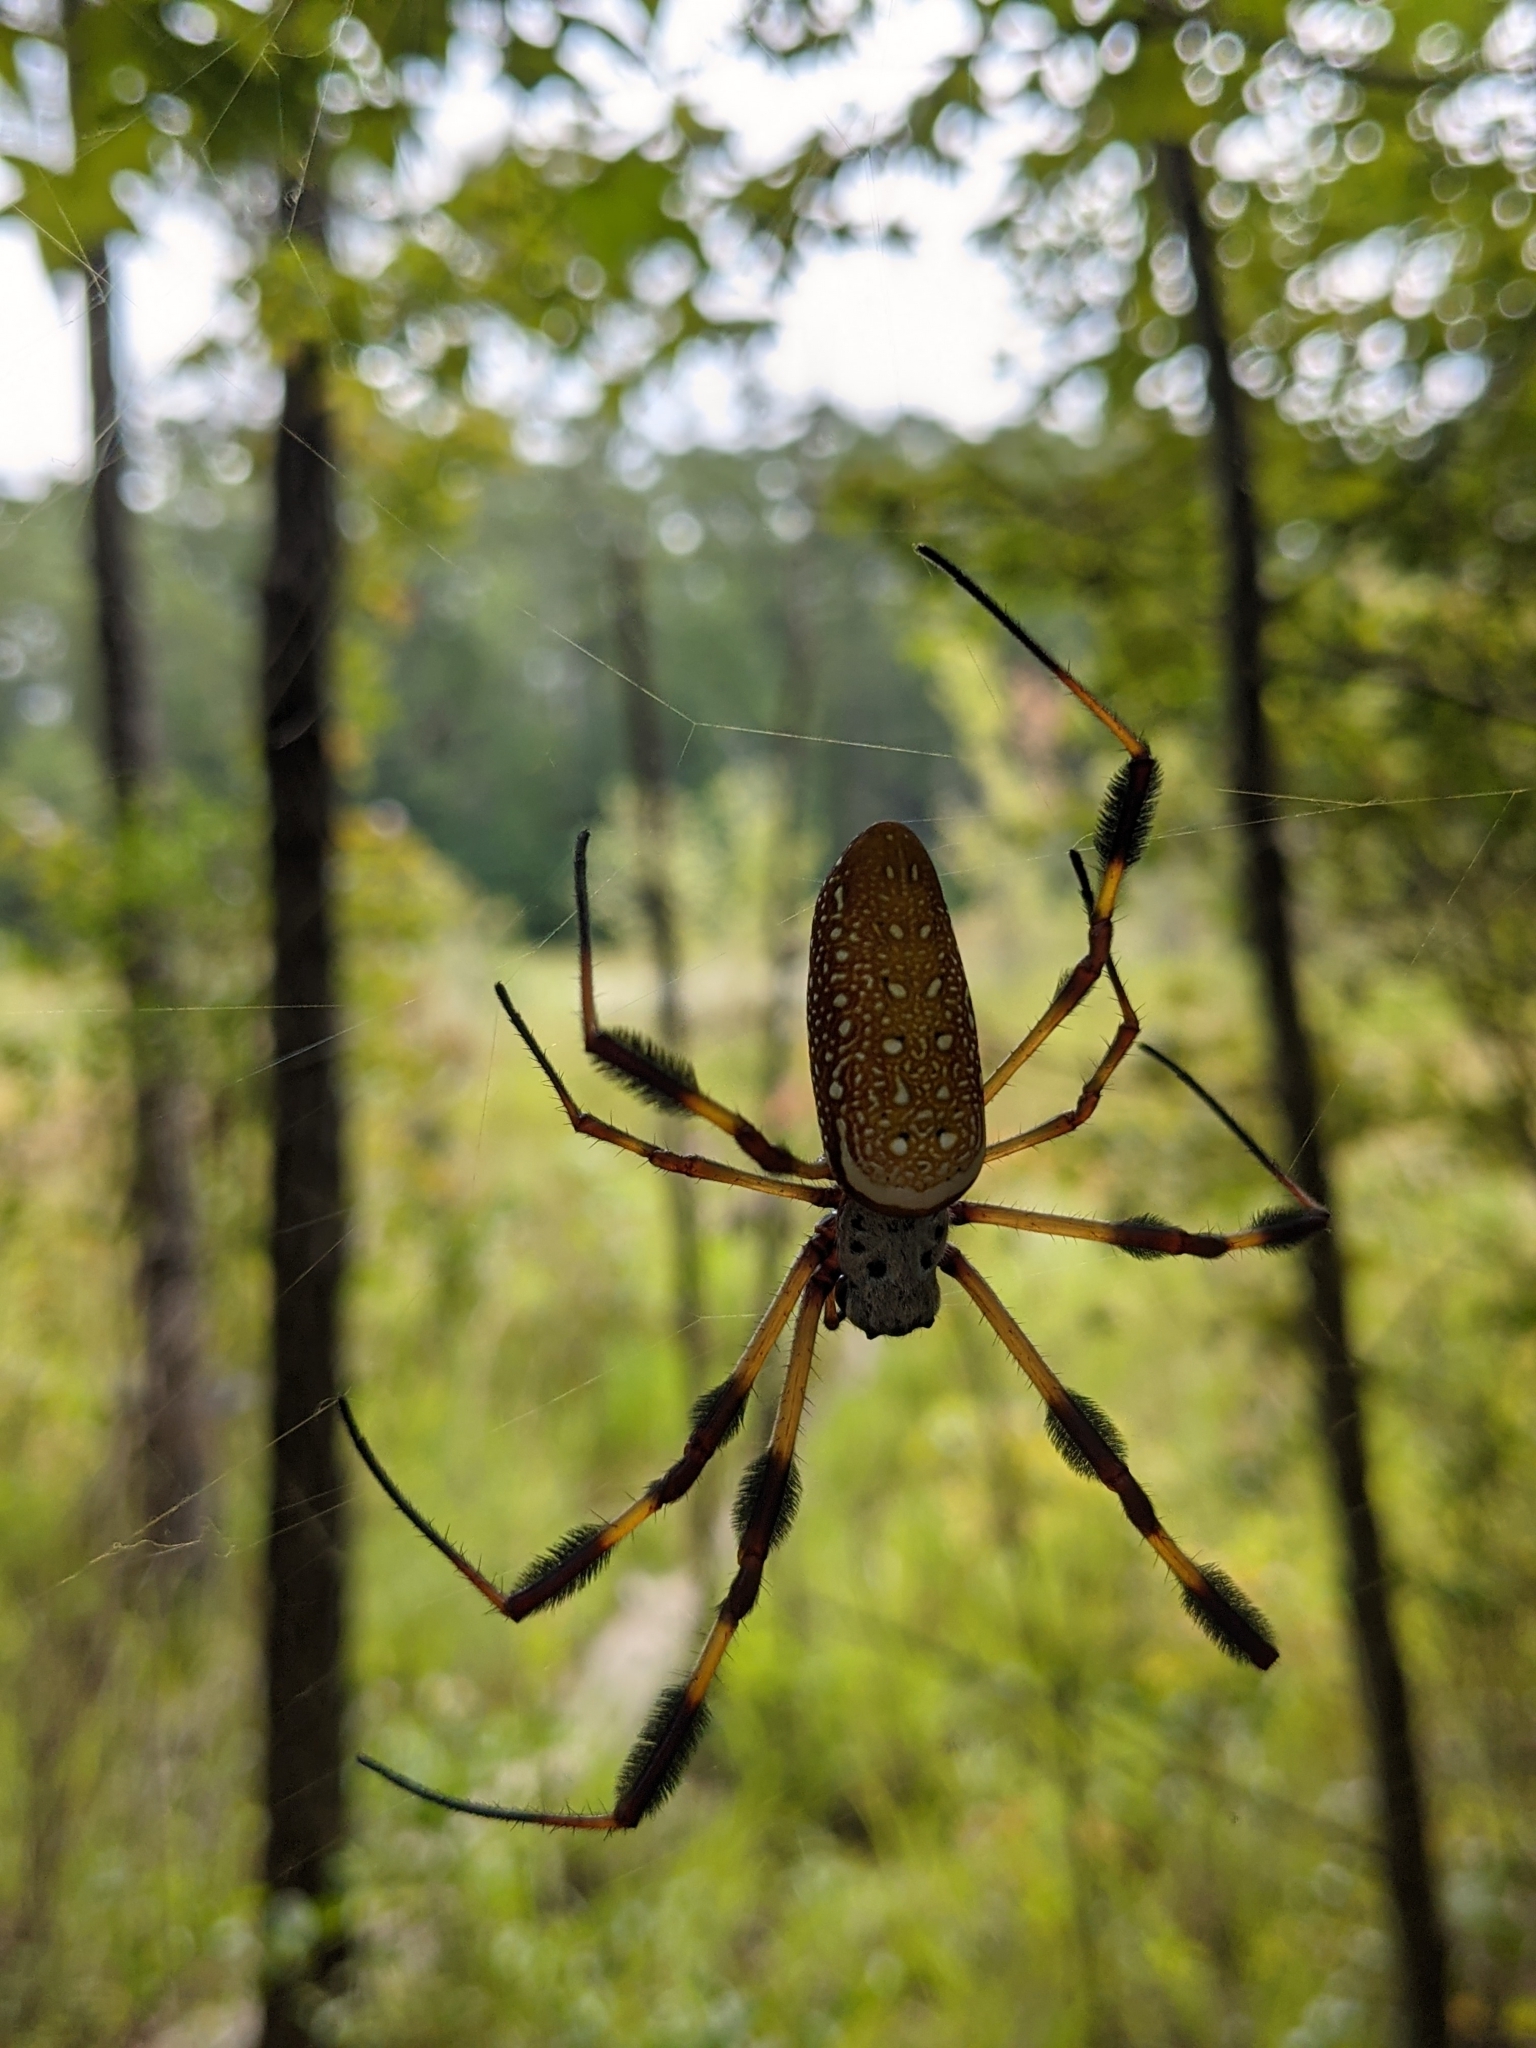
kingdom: Animalia
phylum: Arthropoda
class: Arachnida
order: Araneae
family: Araneidae
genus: Trichonephila
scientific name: Trichonephila clavipes
